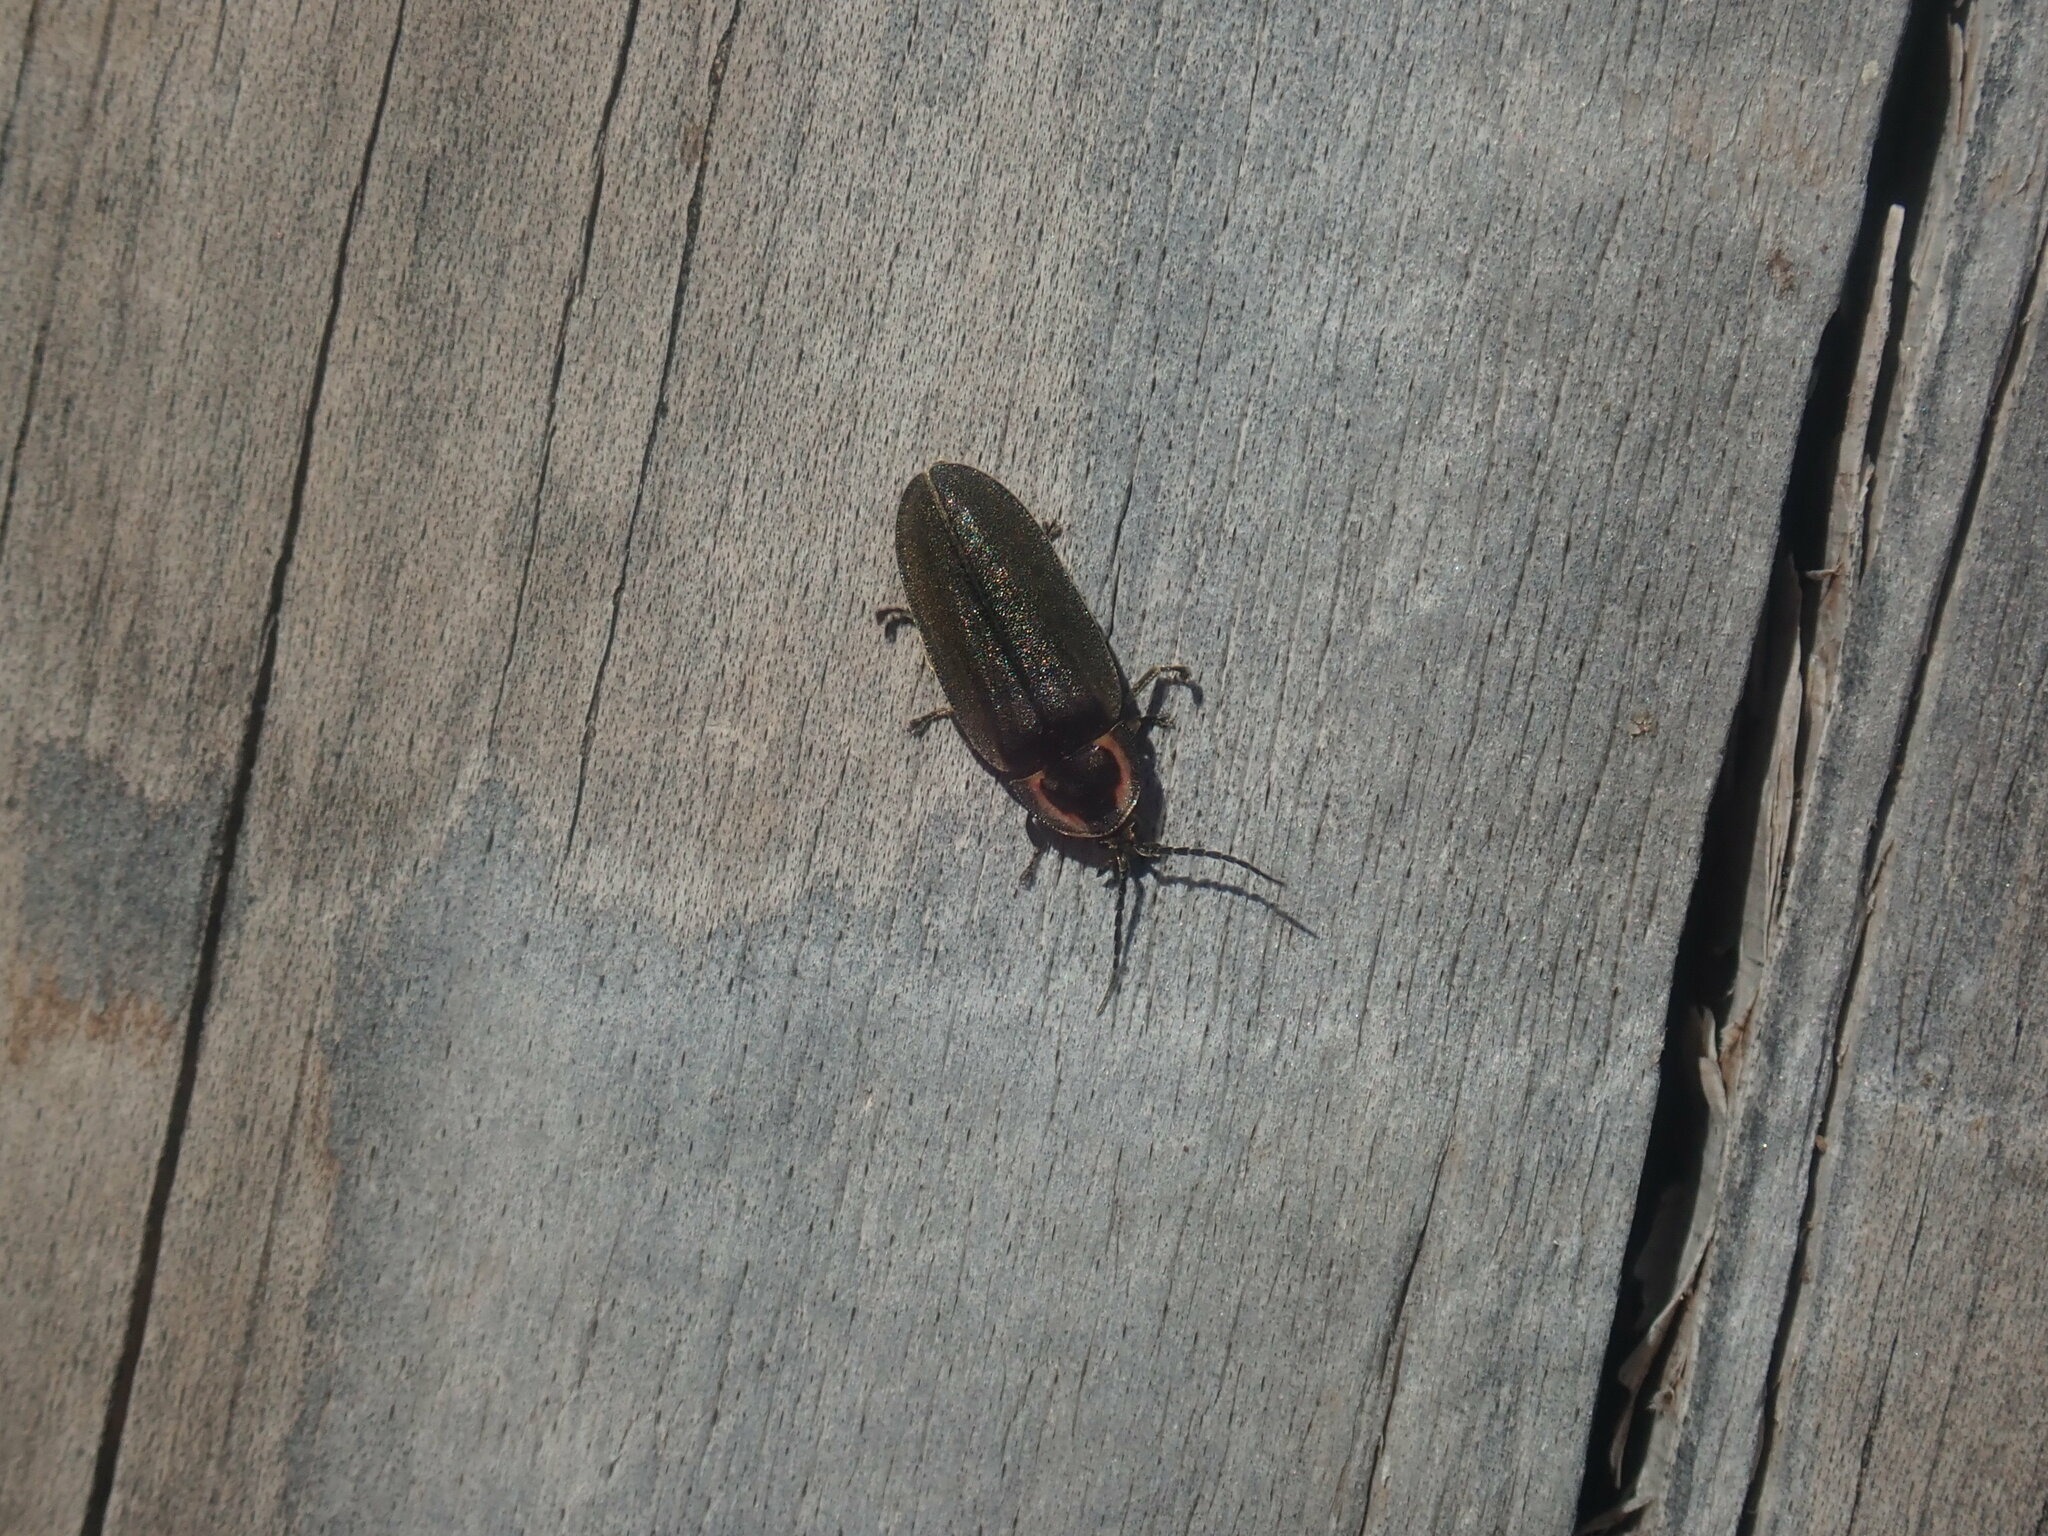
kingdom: Animalia
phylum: Arthropoda
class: Insecta
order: Coleoptera
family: Lampyridae
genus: Photinus
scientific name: Photinus corrusca
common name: Winter firefly
